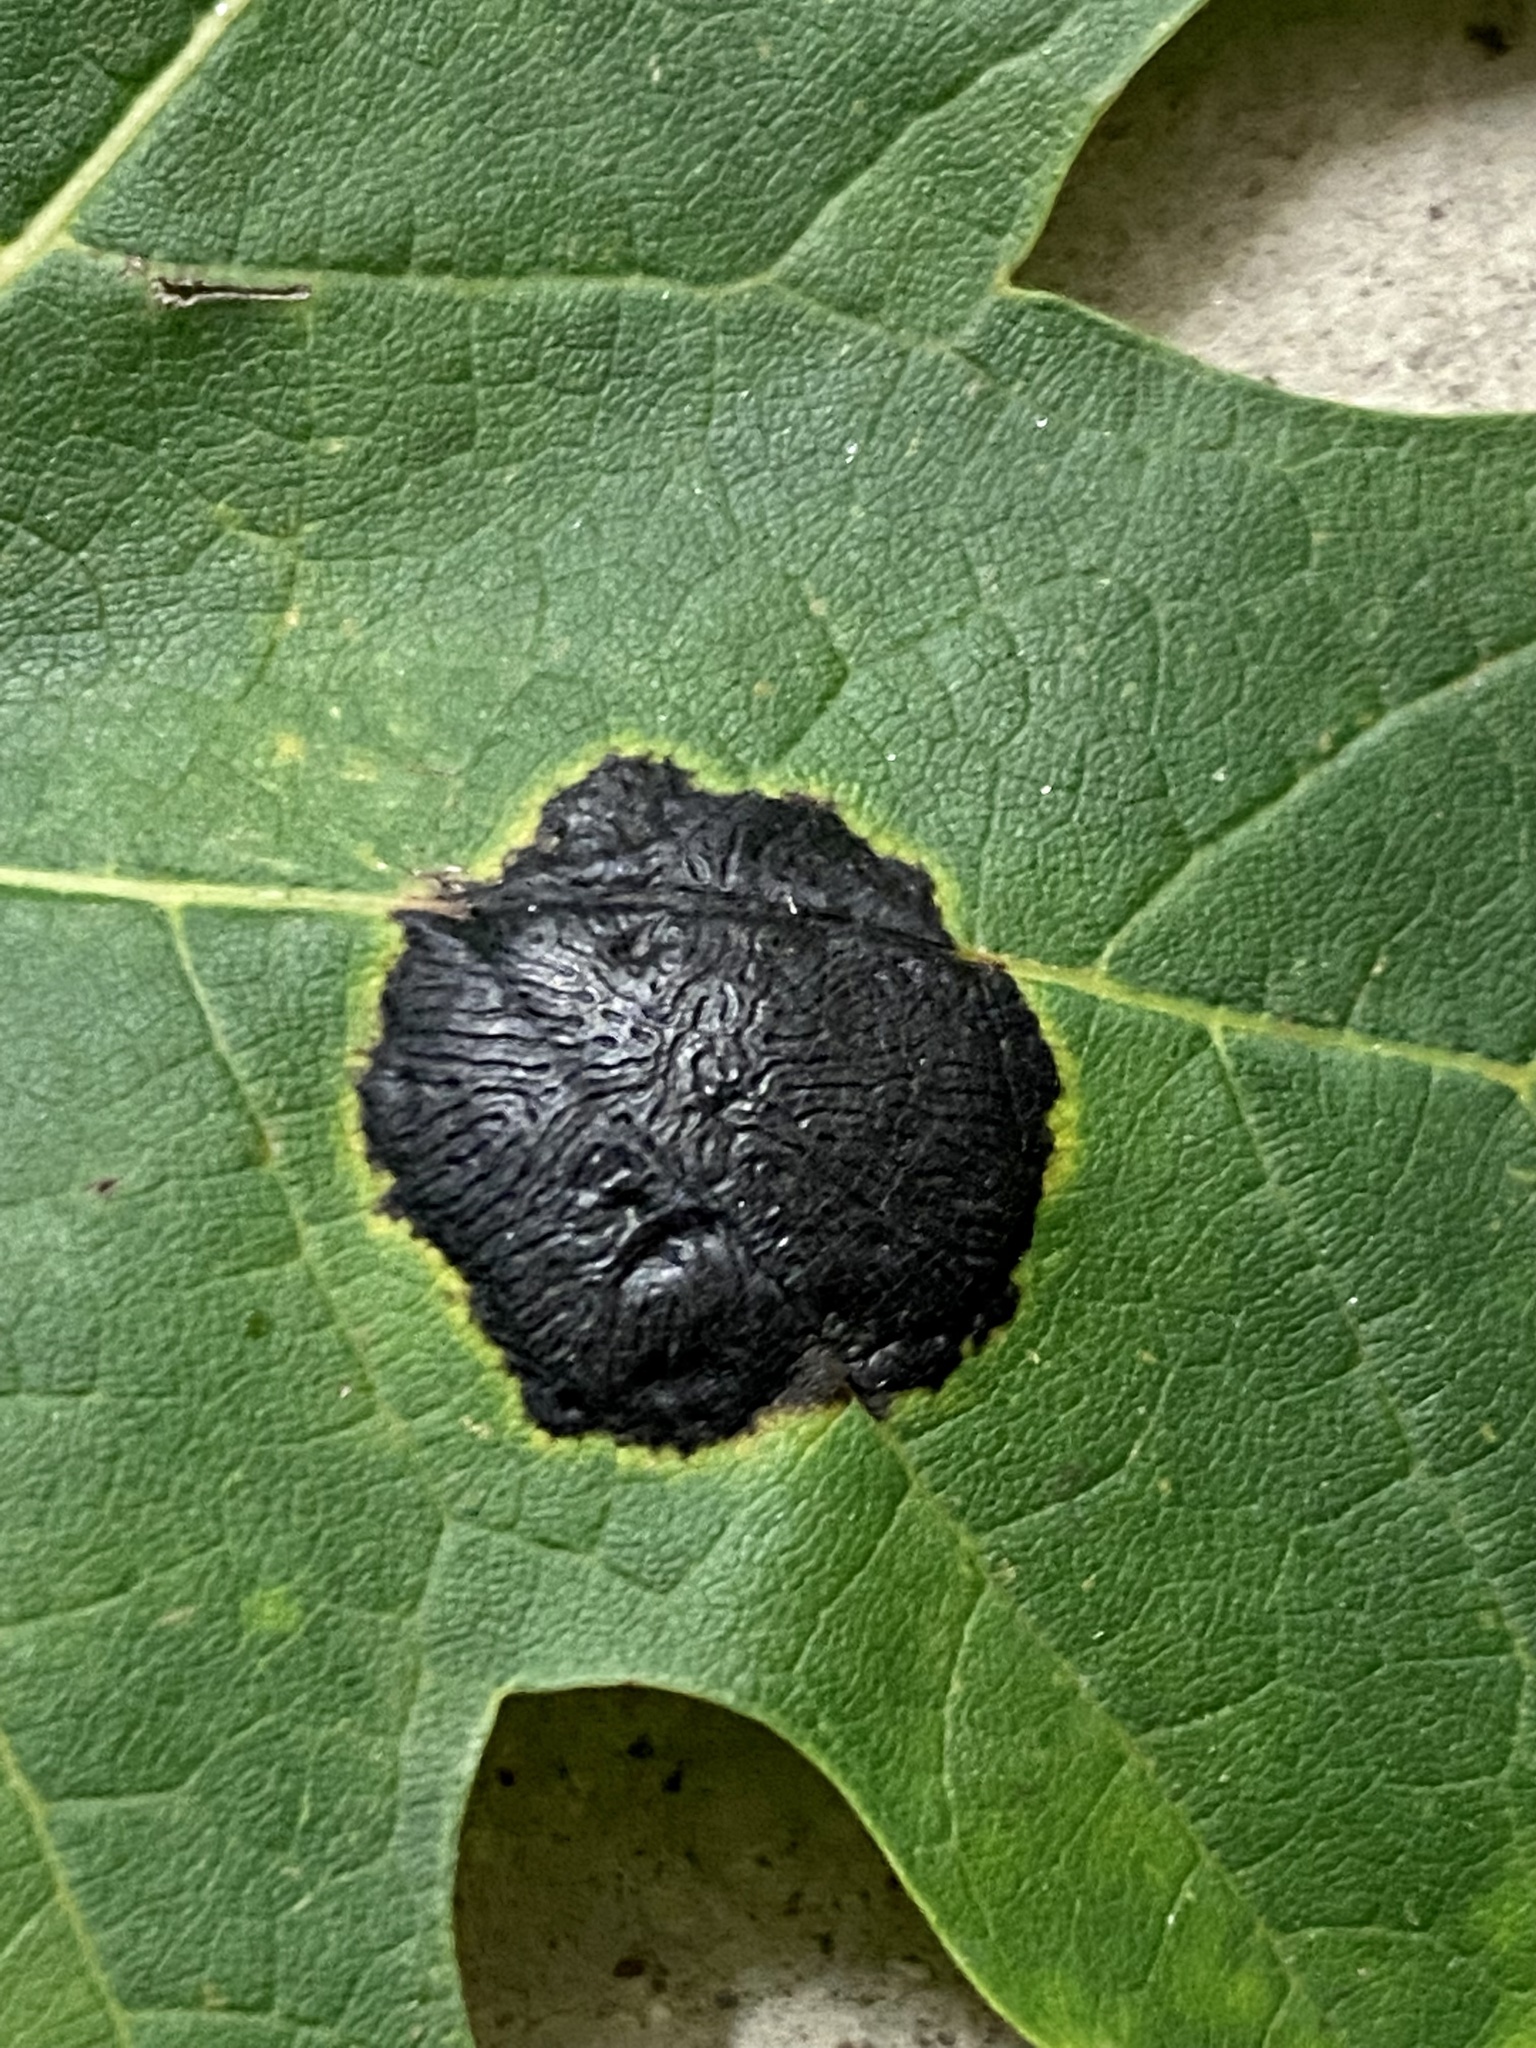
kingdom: Fungi
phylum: Ascomycota
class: Leotiomycetes
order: Rhytismatales
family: Rhytismataceae
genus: Rhytisma
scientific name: Rhytisma americanum
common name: American tar spot
